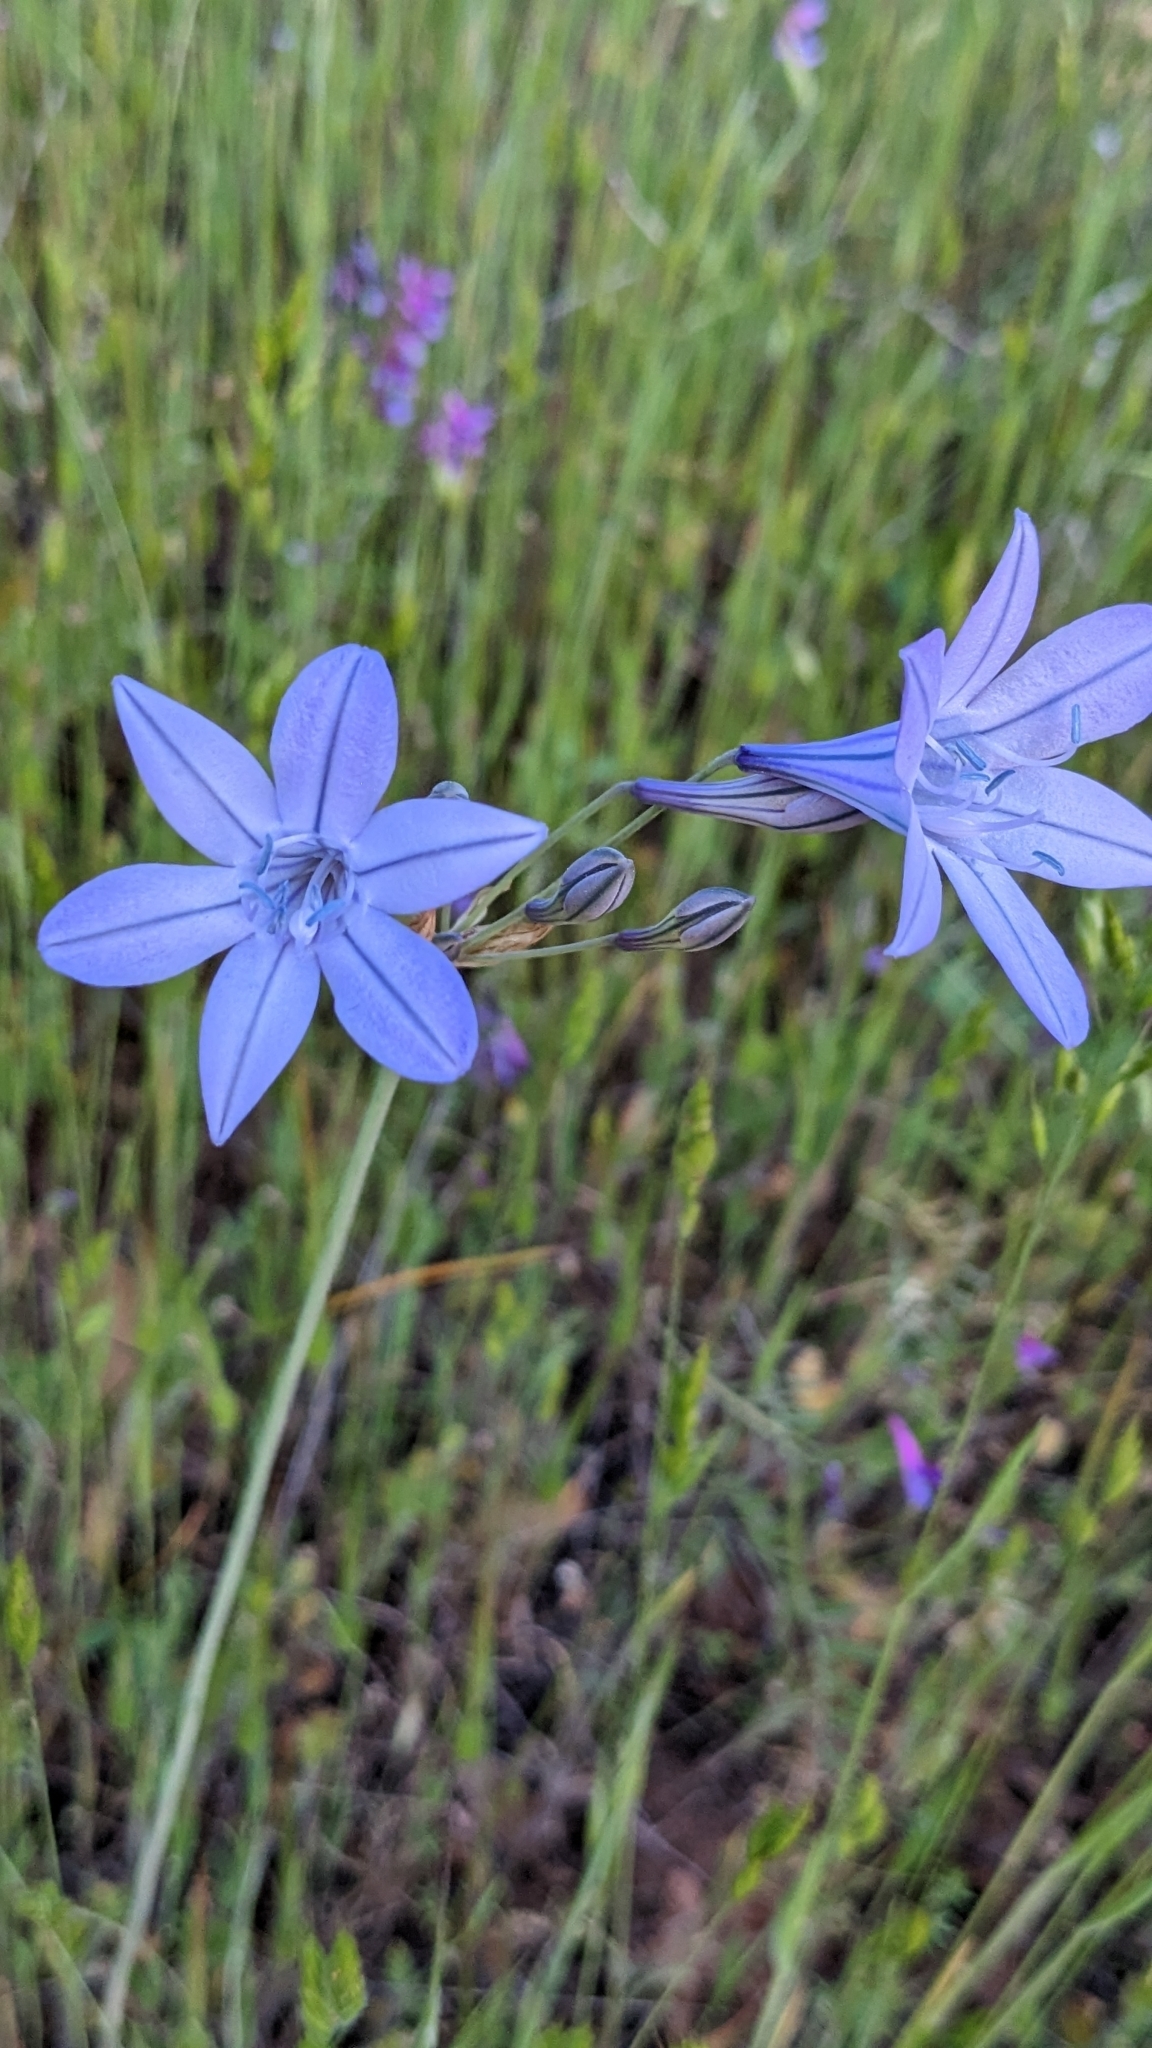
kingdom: Plantae
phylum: Tracheophyta
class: Liliopsida
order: Asparagales
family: Asparagaceae
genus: Triteleia
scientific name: Triteleia laxa
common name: Triplet-lily
